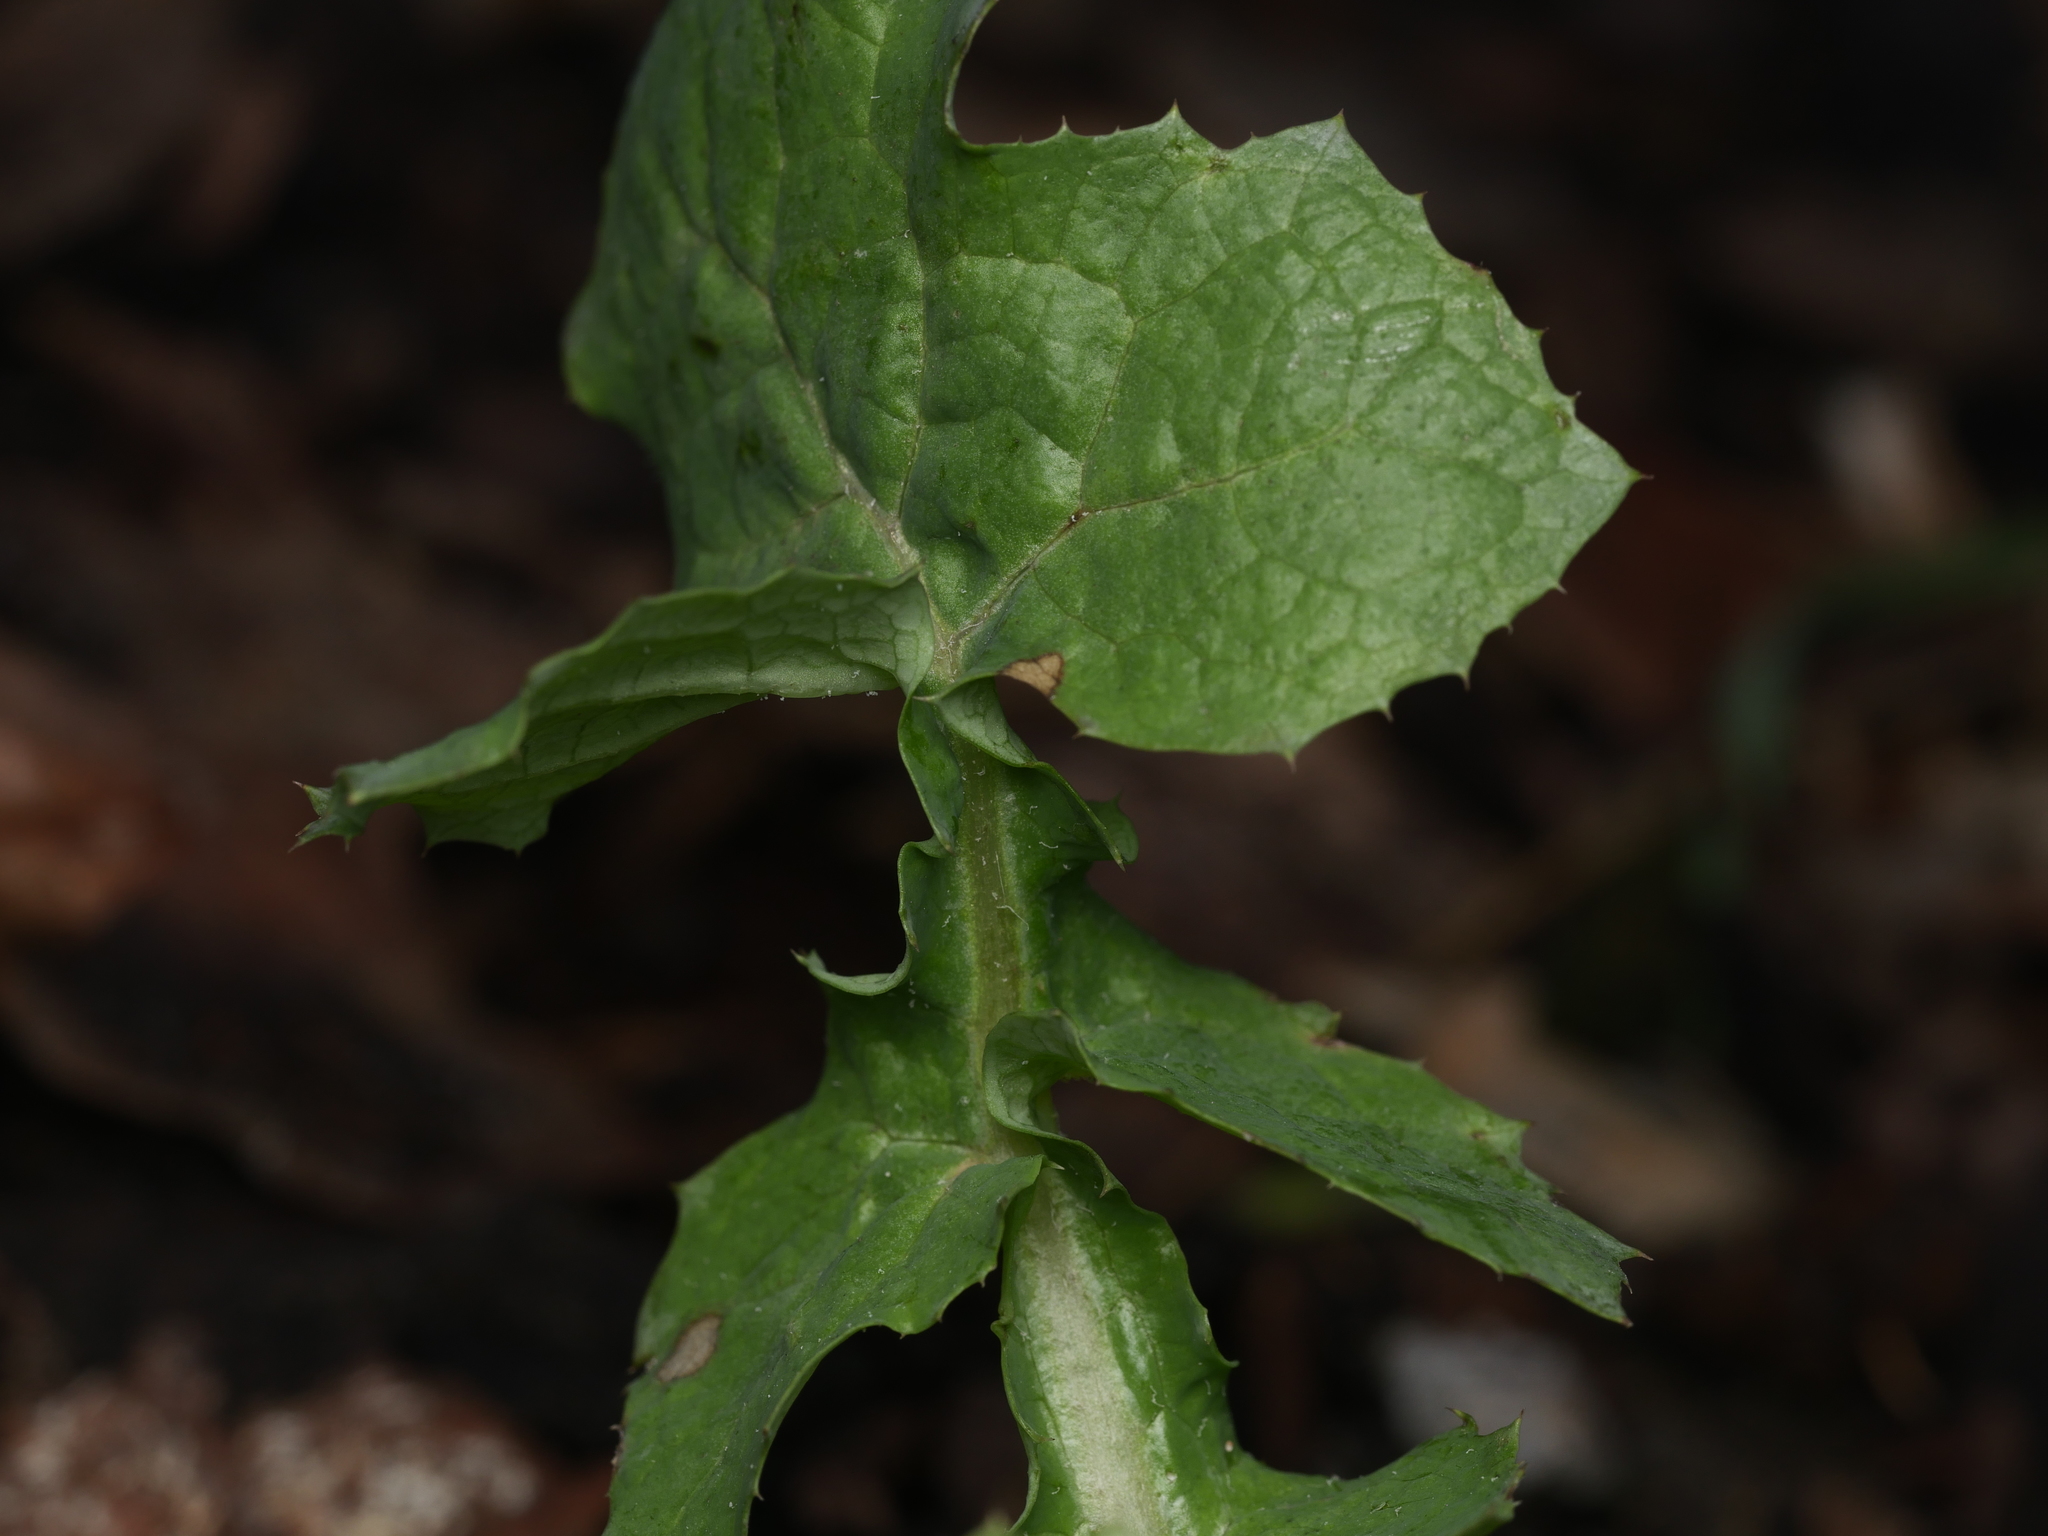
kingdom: Plantae
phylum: Tracheophyta
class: Magnoliopsida
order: Asterales
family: Asteraceae
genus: Sonchus
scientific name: Sonchus oleraceus
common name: Common sowthistle
